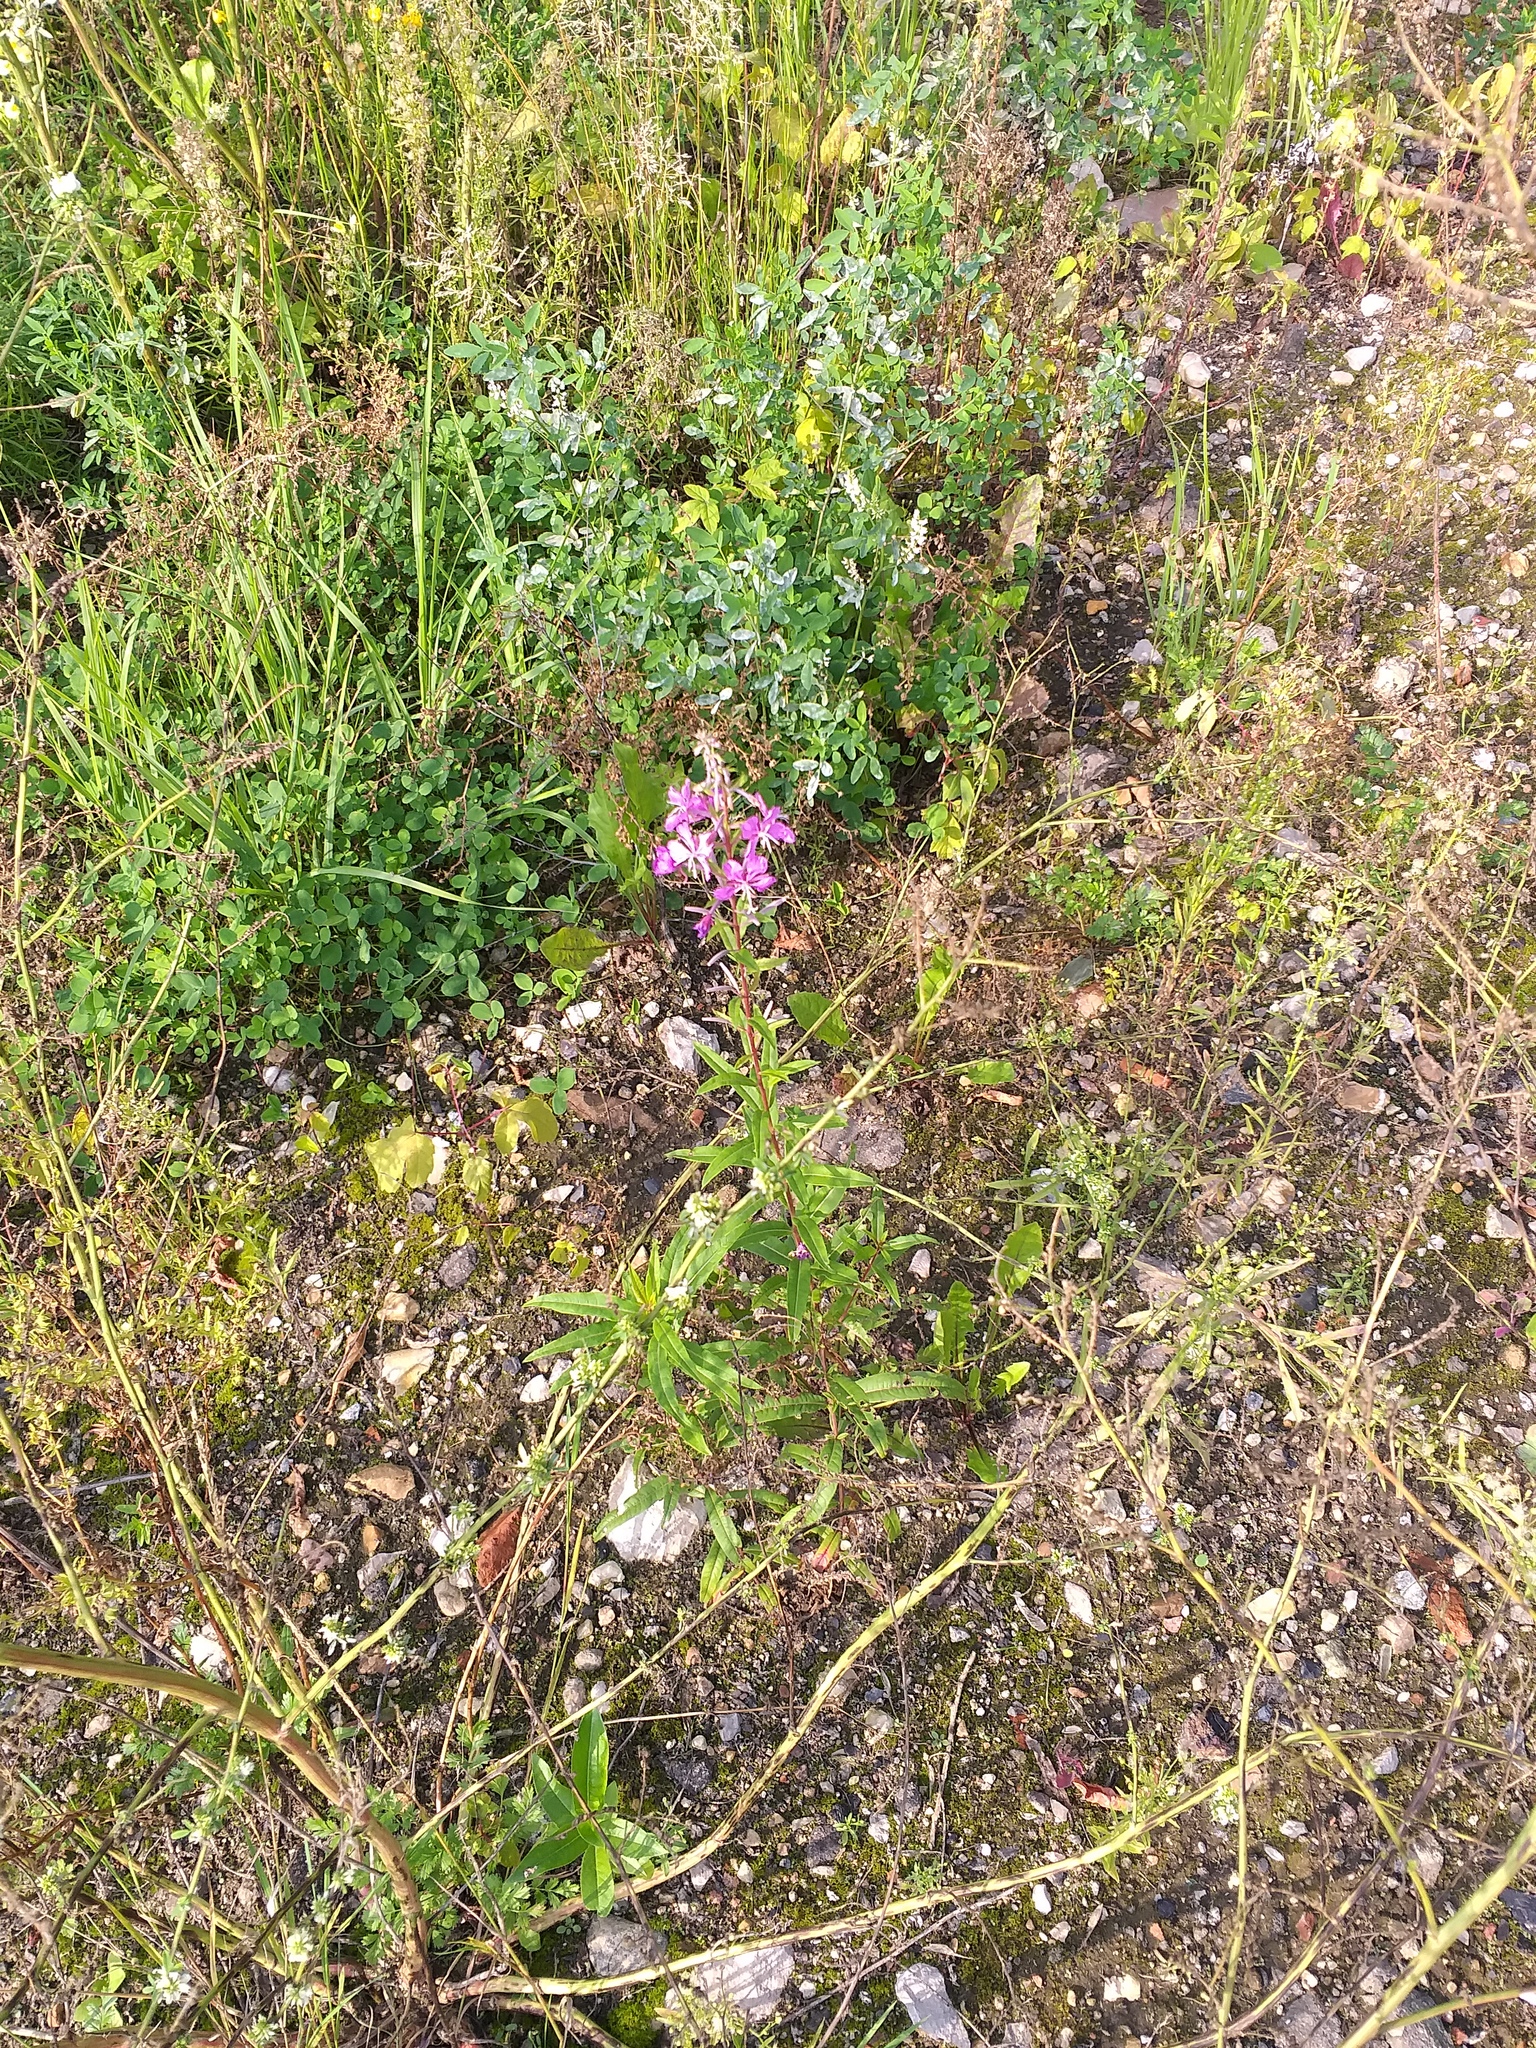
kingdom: Plantae
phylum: Tracheophyta
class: Magnoliopsida
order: Myrtales
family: Onagraceae
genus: Chamaenerion
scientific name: Chamaenerion angustifolium
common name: Fireweed
